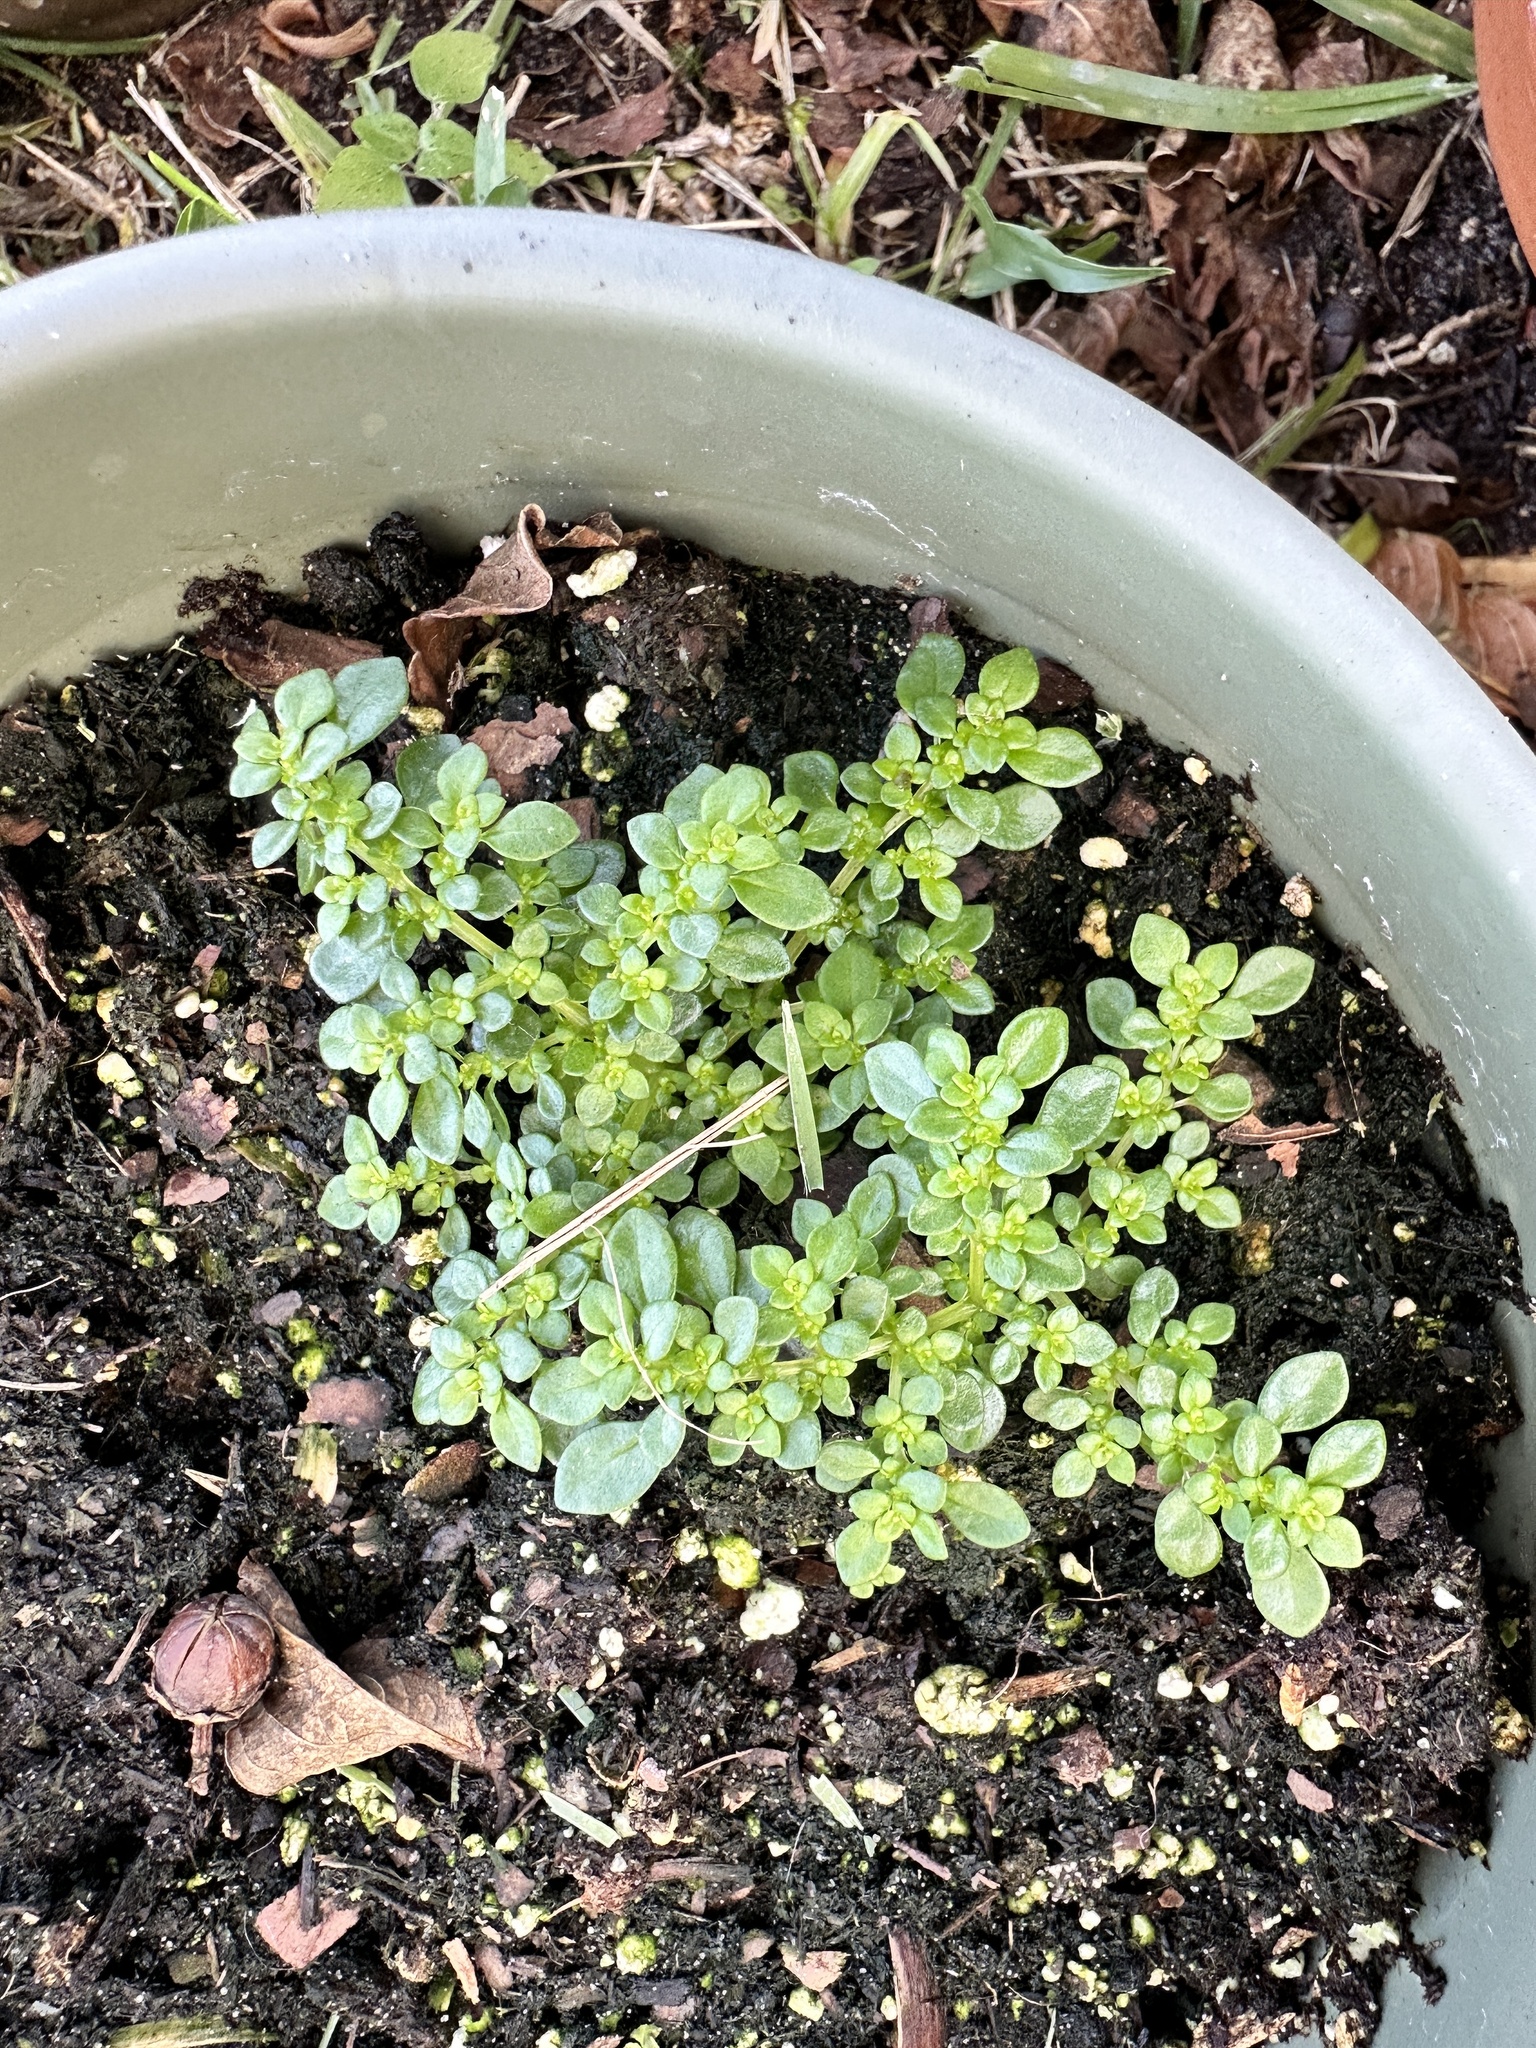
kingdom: Plantae
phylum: Tracheophyta
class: Magnoliopsida
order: Rosales
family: Urticaceae
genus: Pilea
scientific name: Pilea microphylla
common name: Artillery-plant
